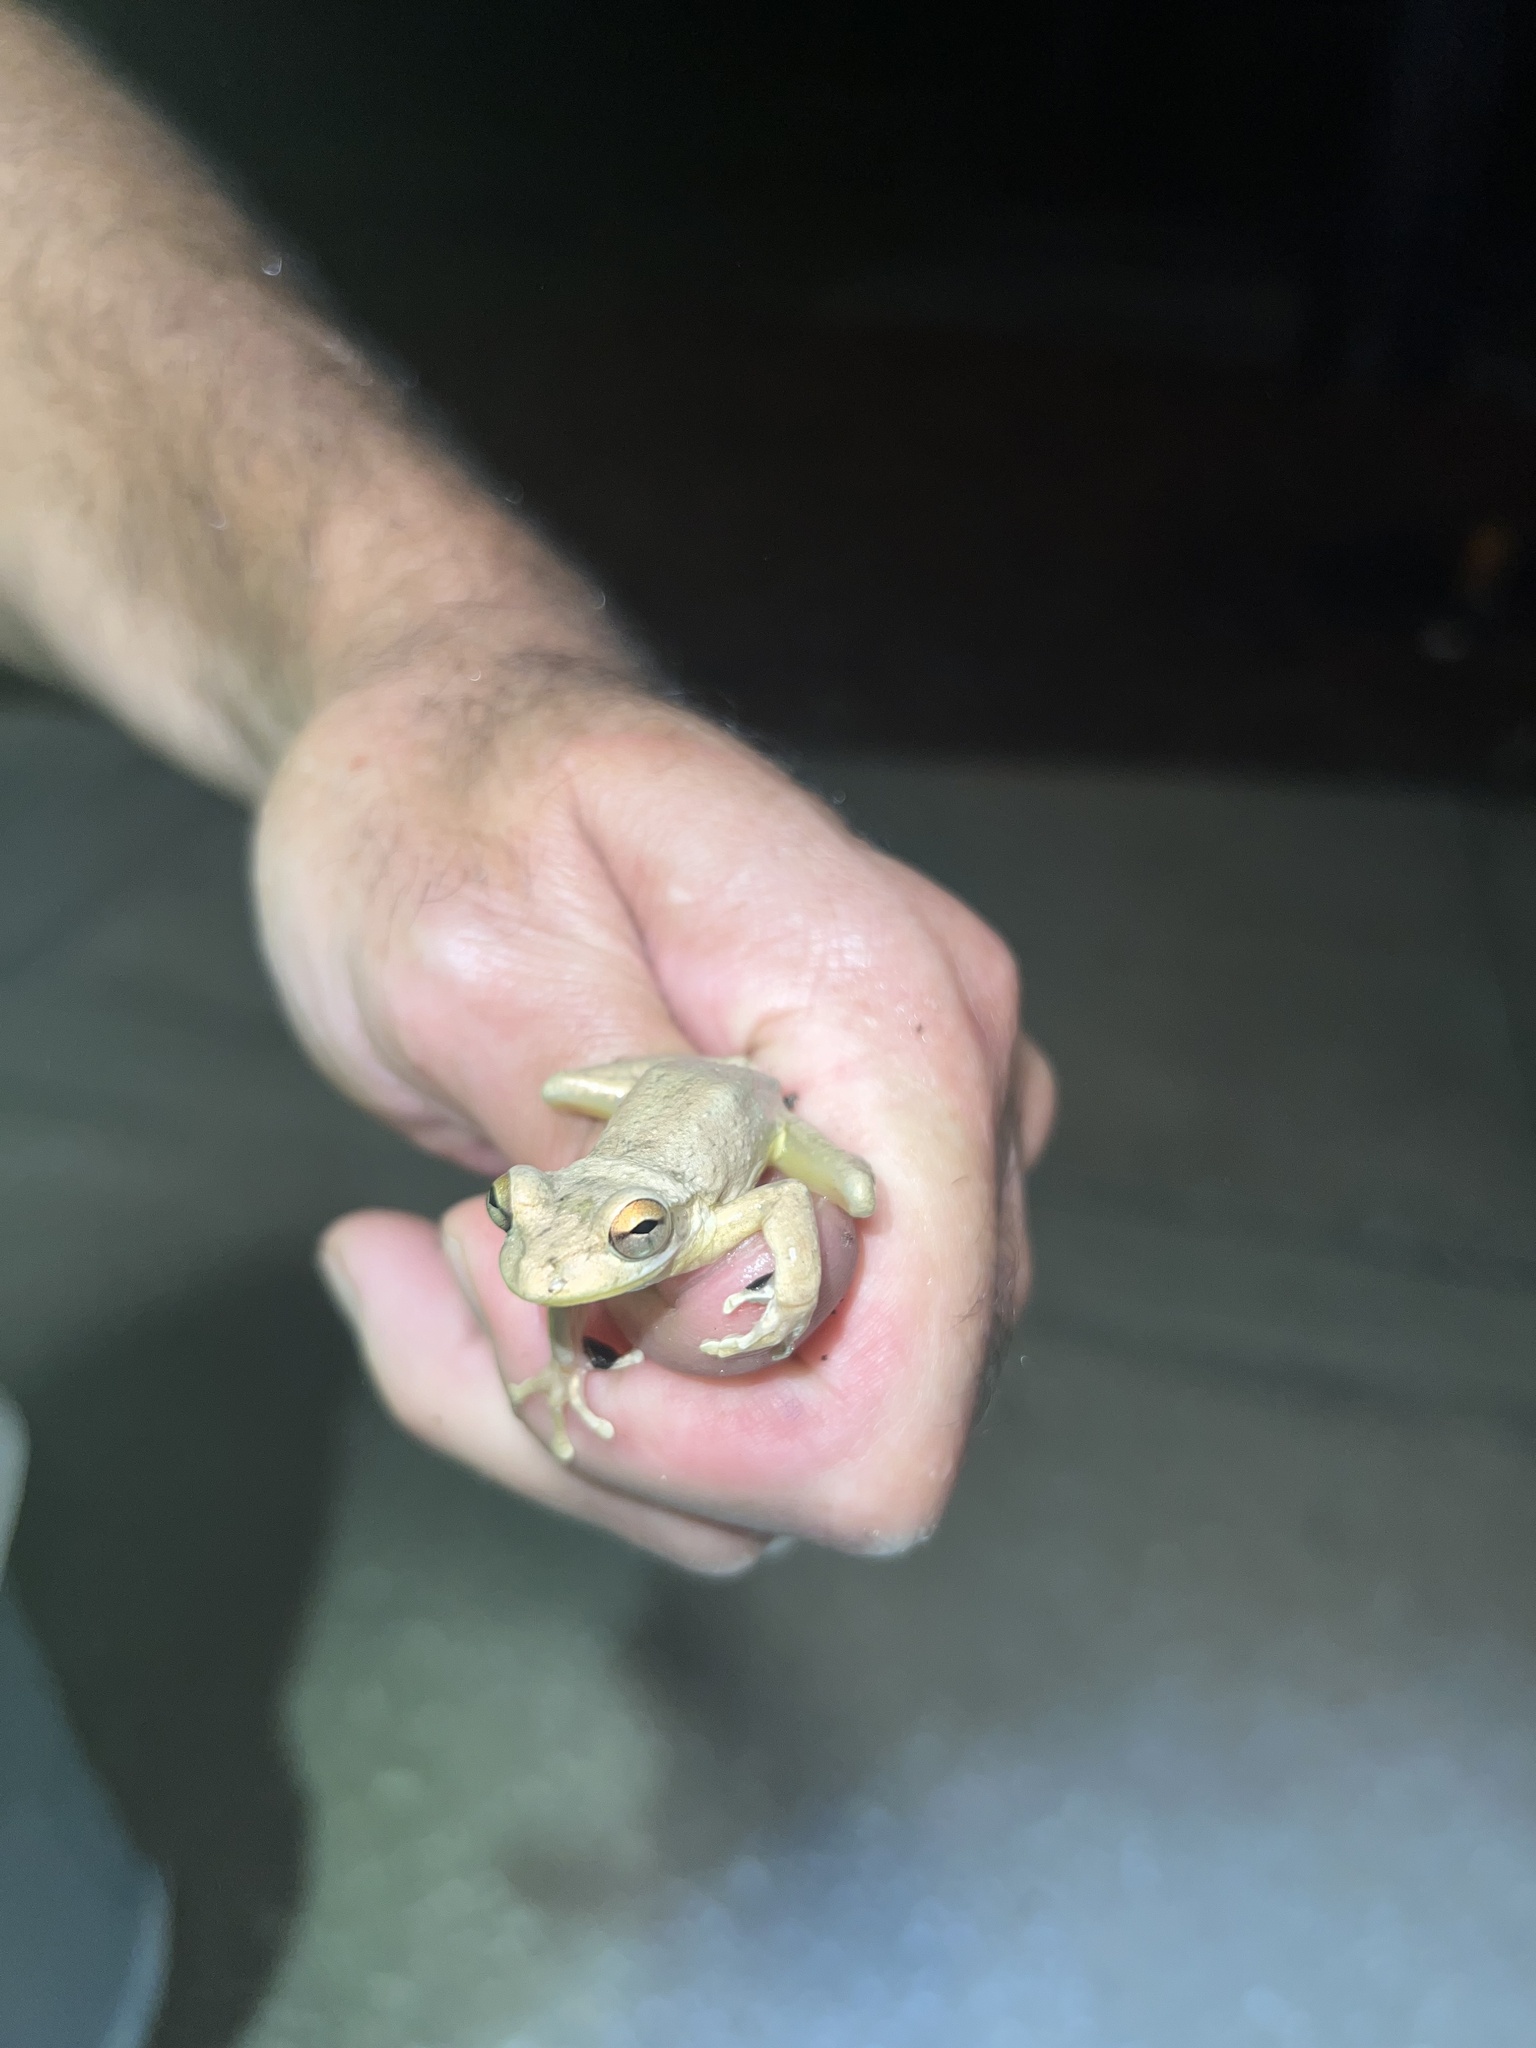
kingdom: Animalia
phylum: Chordata
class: Amphibia
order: Anura
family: Hylidae
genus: Osteopilus
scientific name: Osteopilus septentrionalis
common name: Cuban treefrog
